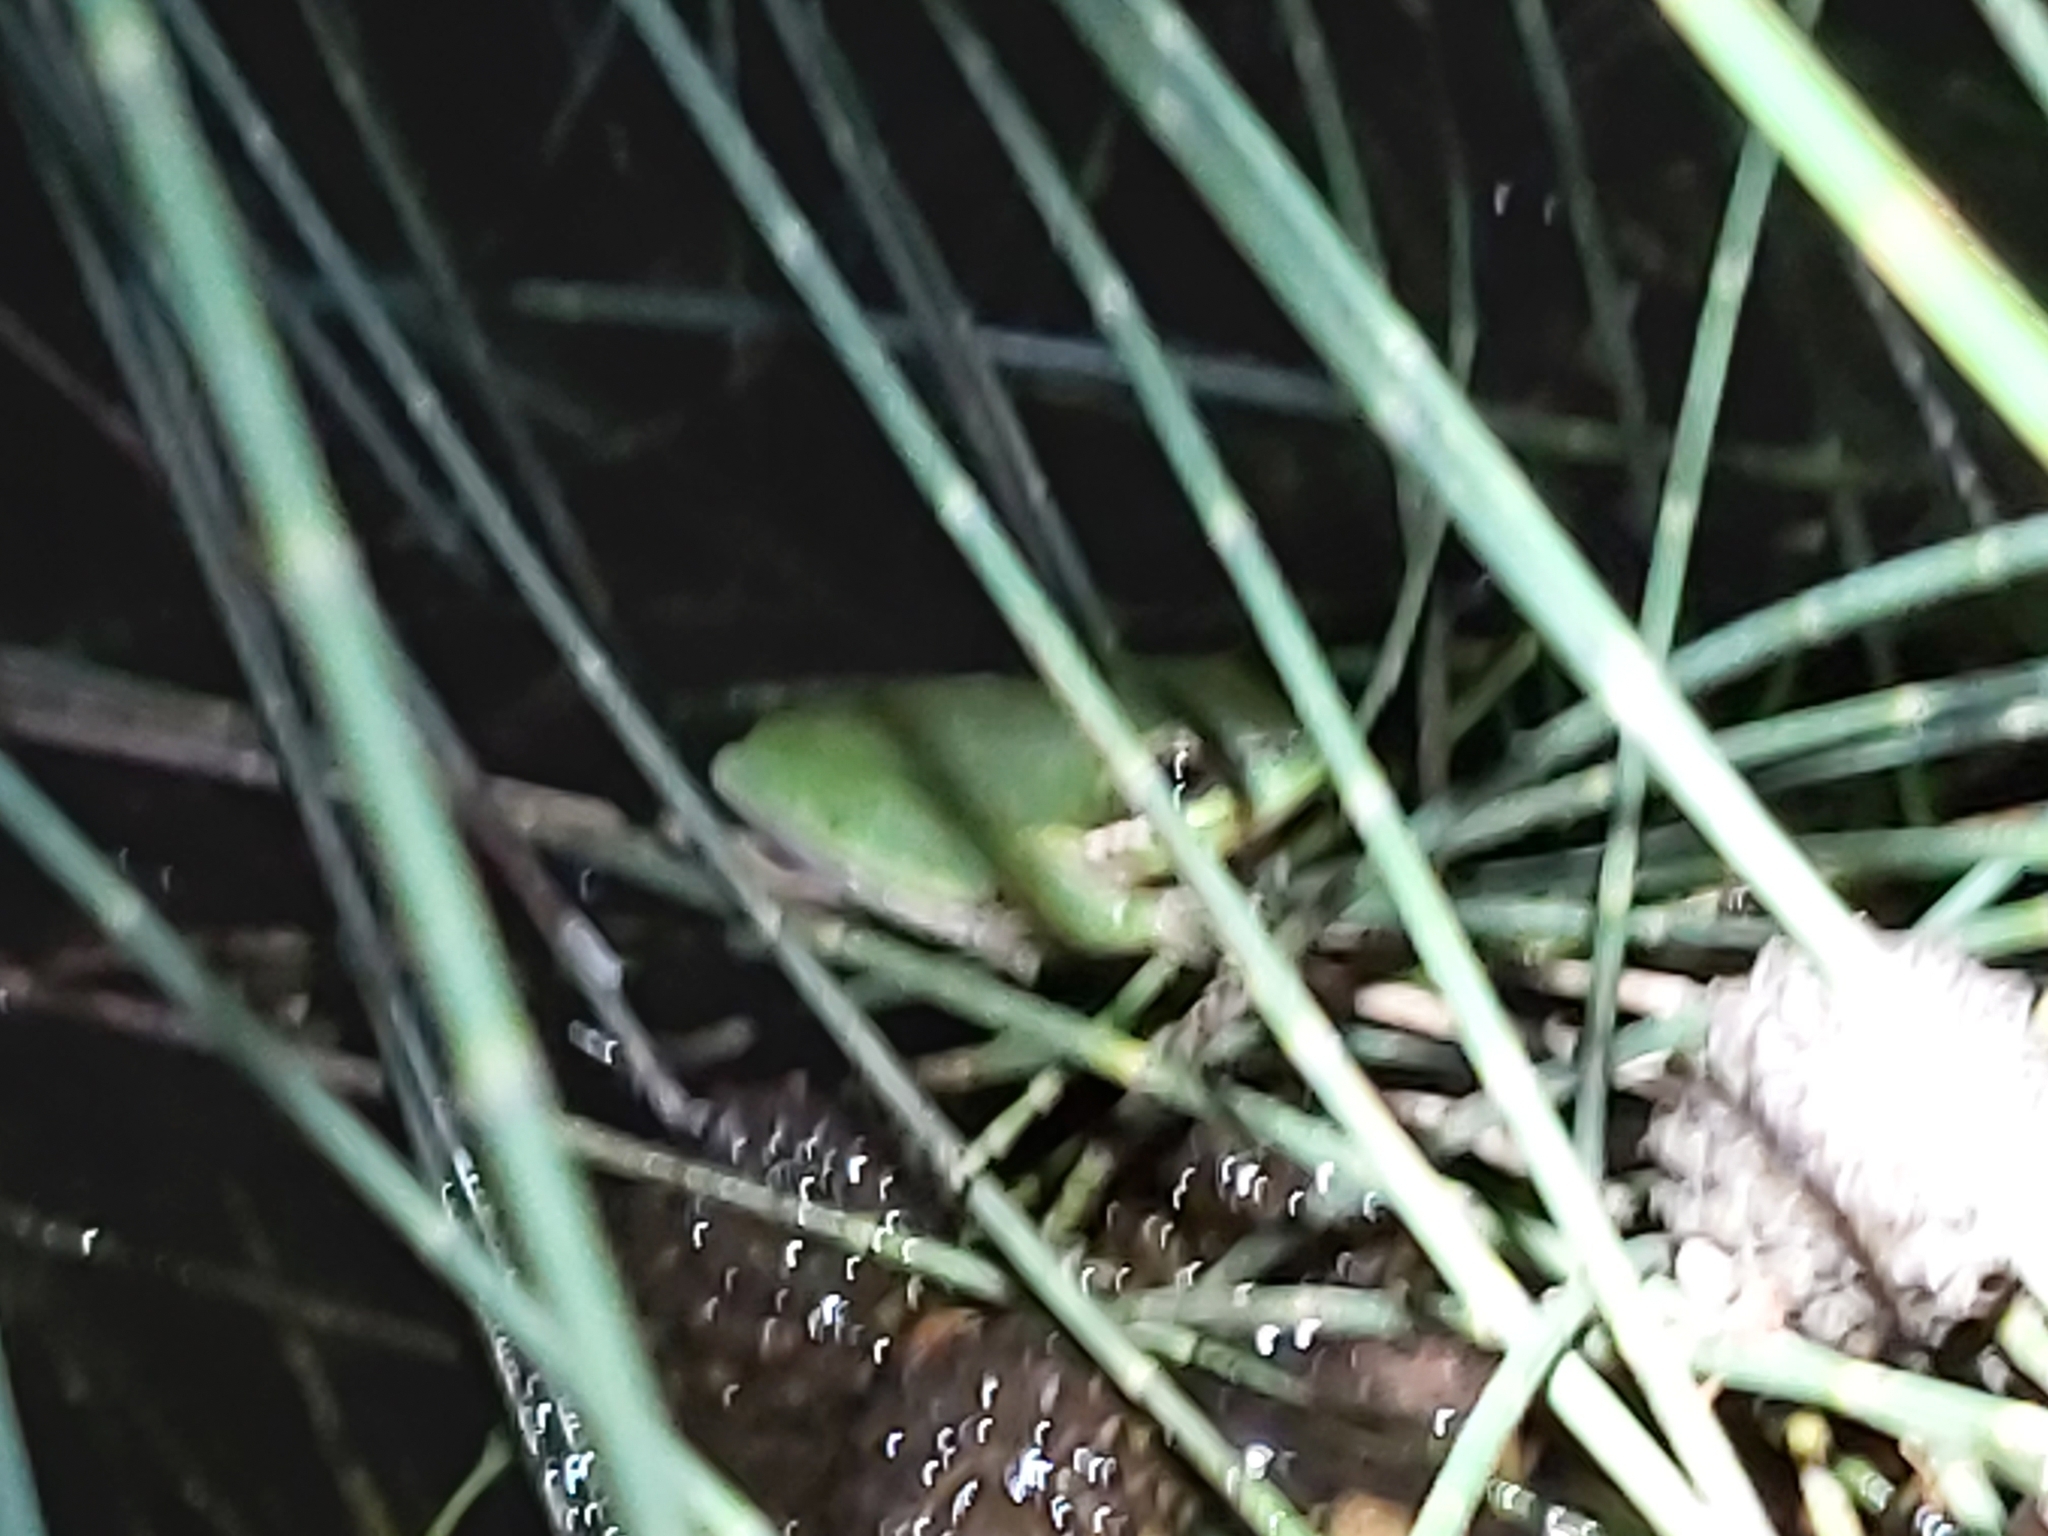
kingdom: Animalia
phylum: Chordata
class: Amphibia
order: Anura
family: Pelodryadidae
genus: Litoria
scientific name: Litoria fallax
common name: Eastern dwarf treefrog
